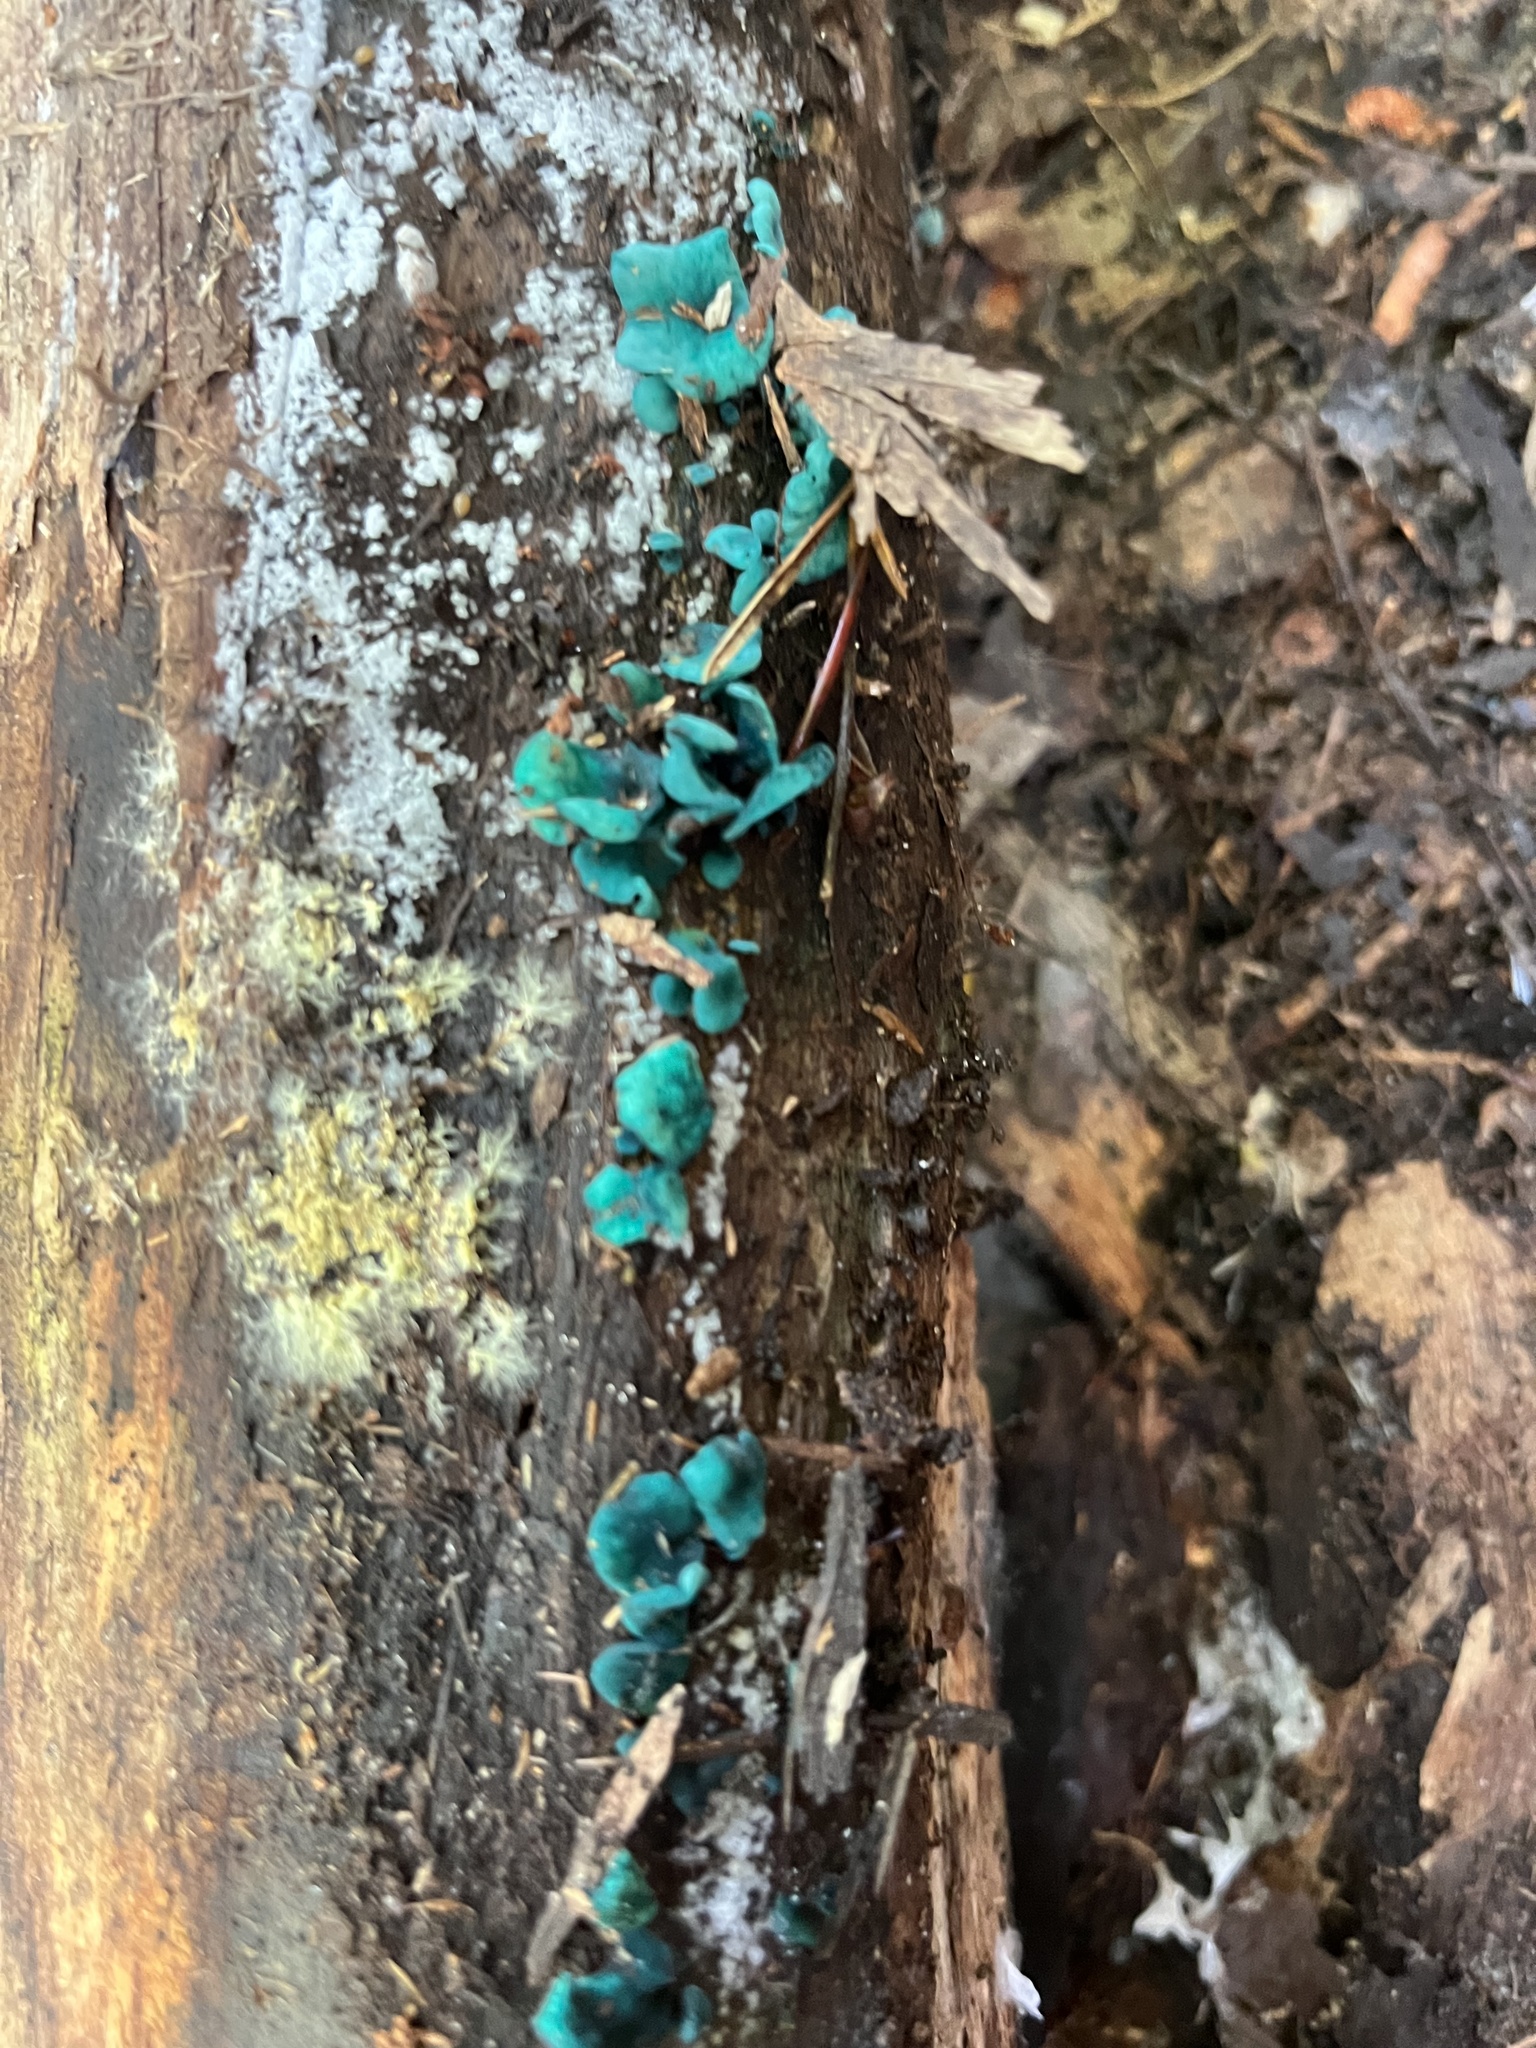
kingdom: Fungi
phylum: Ascomycota
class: Leotiomycetes
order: Helotiales
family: Chlorociboriaceae
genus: Chlorociboria
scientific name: Chlorociboria aeruginascens
